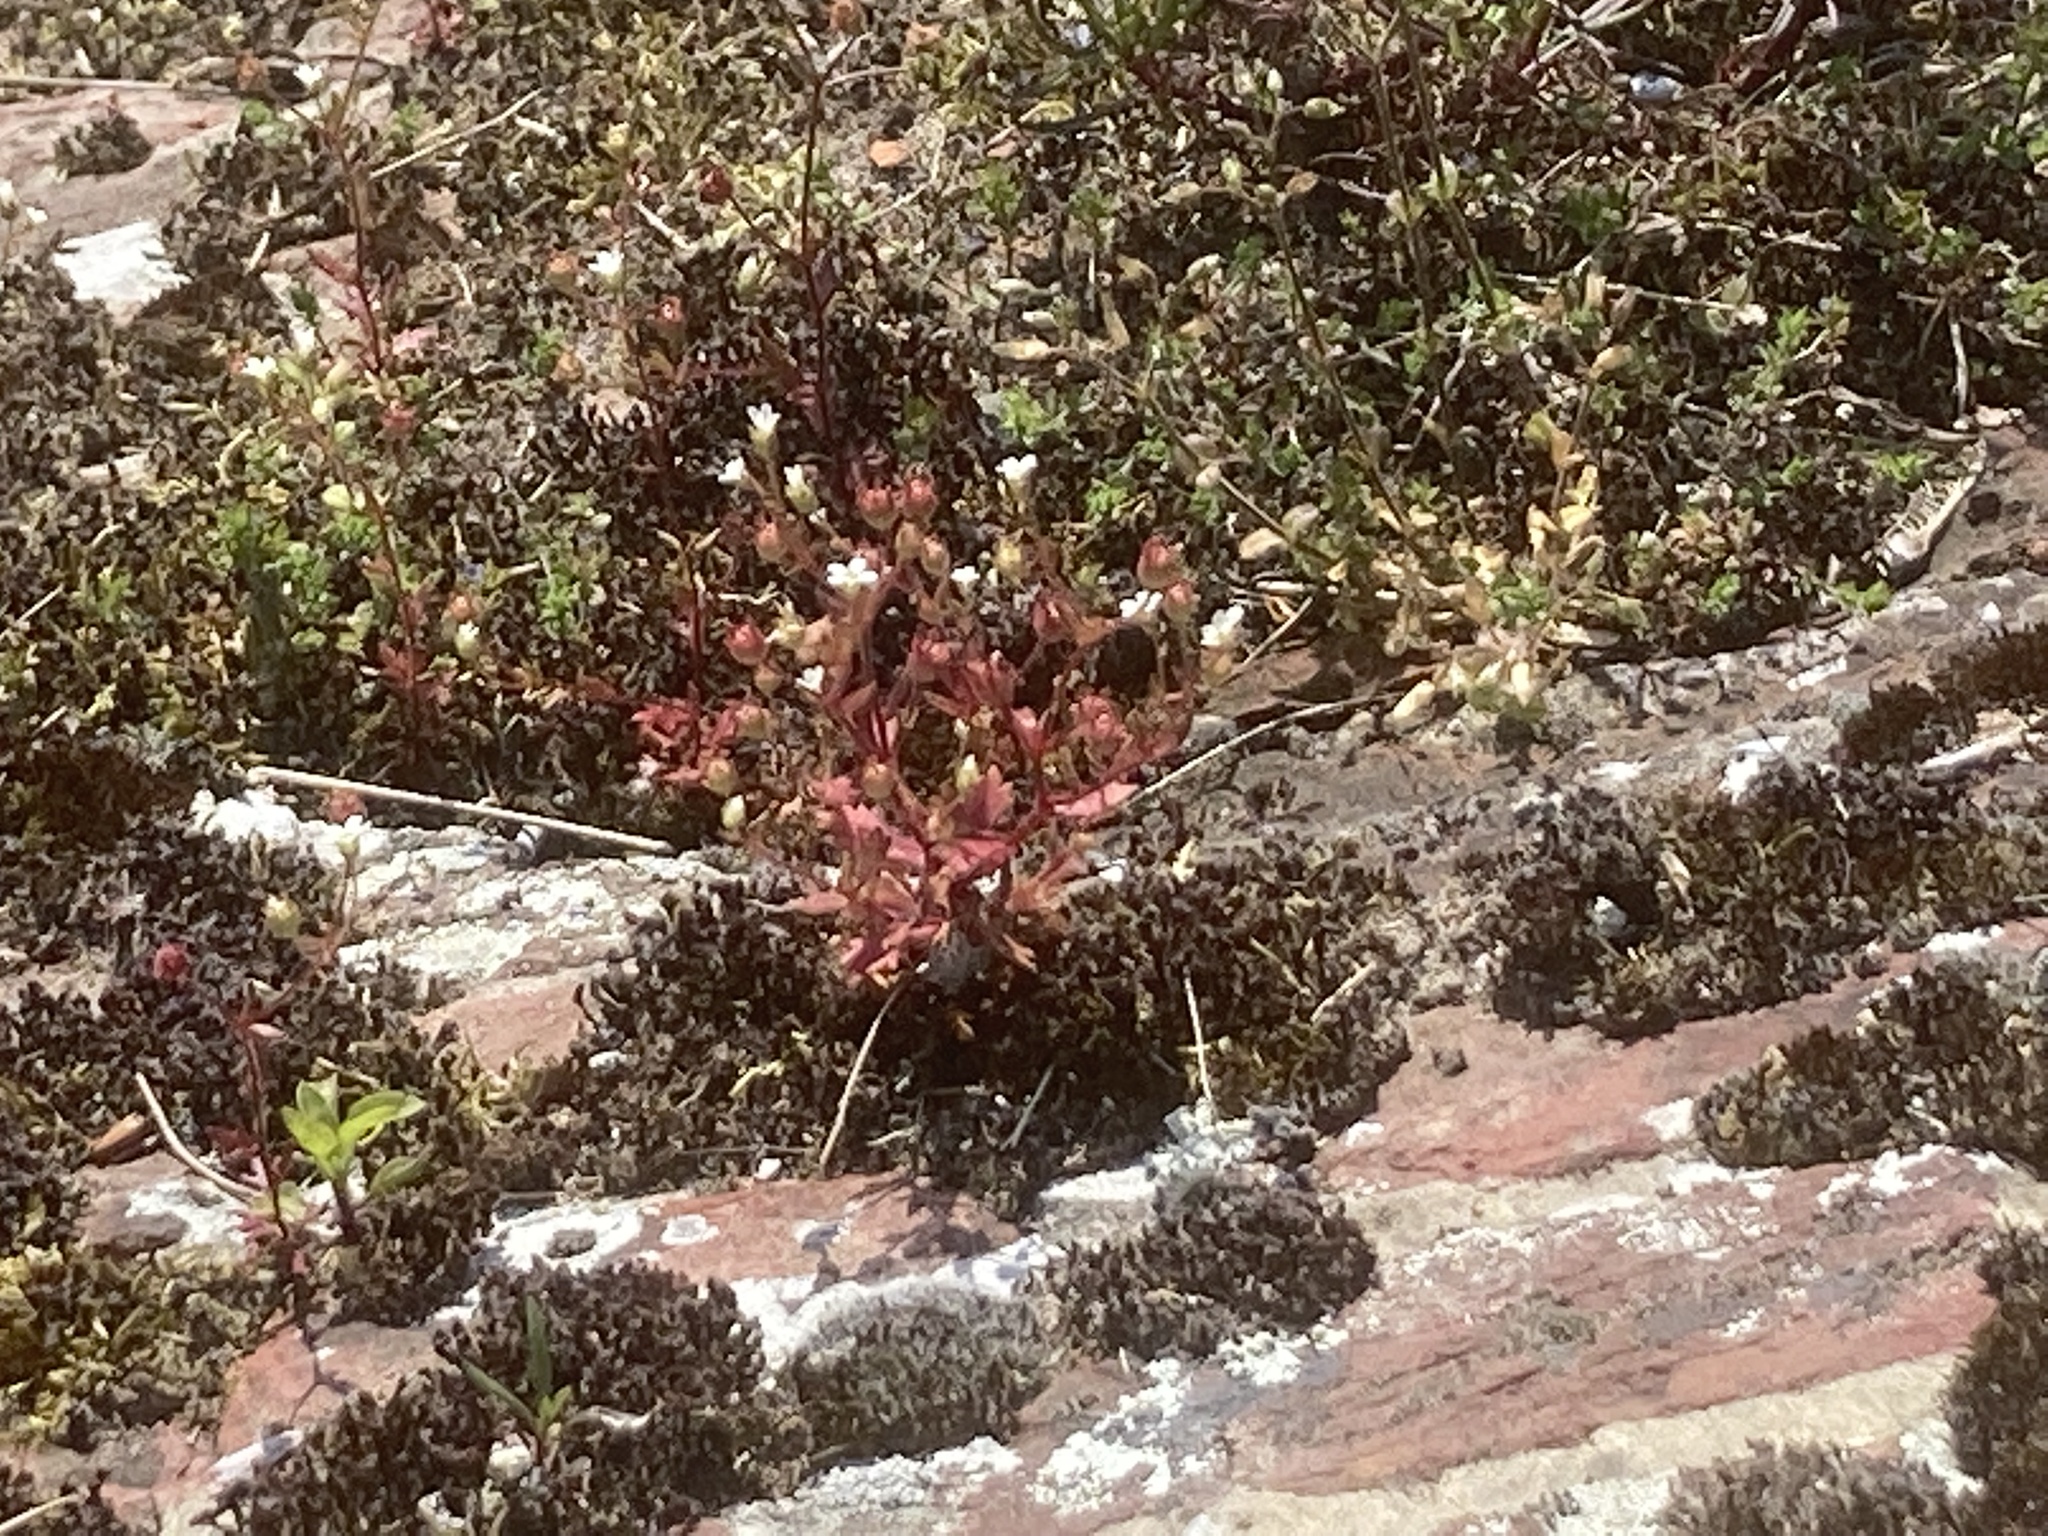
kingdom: Plantae
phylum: Tracheophyta
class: Magnoliopsida
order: Saxifragales
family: Saxifragaceae
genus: Saxifraga
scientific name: Saxifraga tridactylites
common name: Rue-leaved saxifrage
